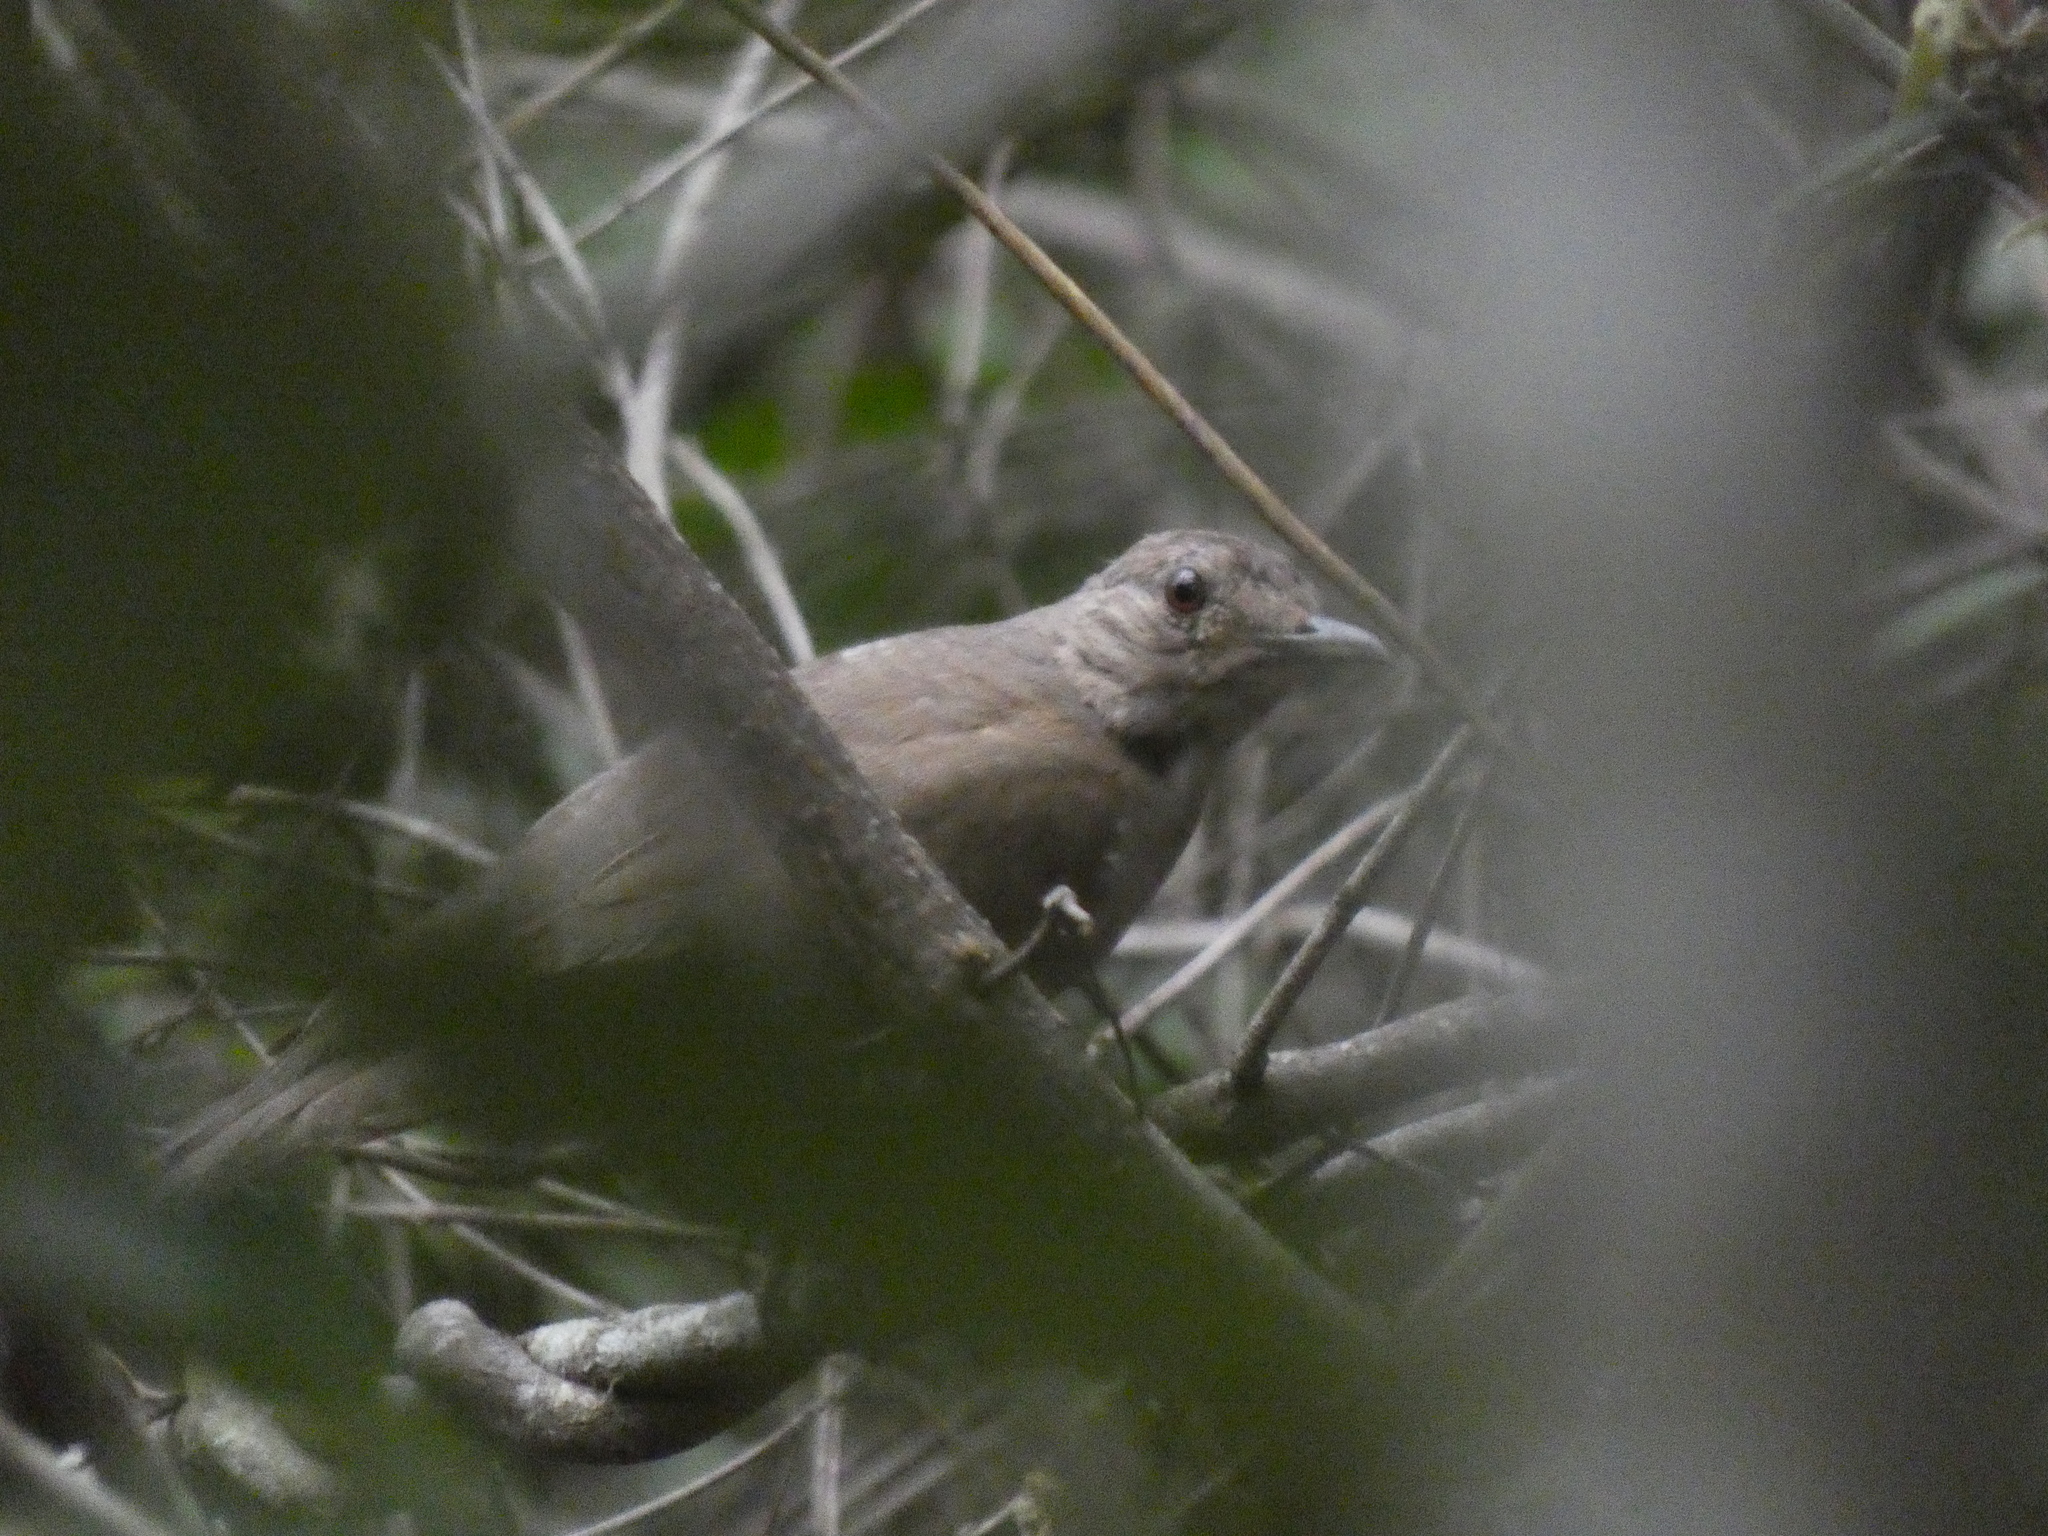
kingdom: Animalia
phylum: Chordata
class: Aves
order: Passeriformes
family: Turdidae
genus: Turdus
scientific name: Turdus leucomelas
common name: Pale-breasted thrush
